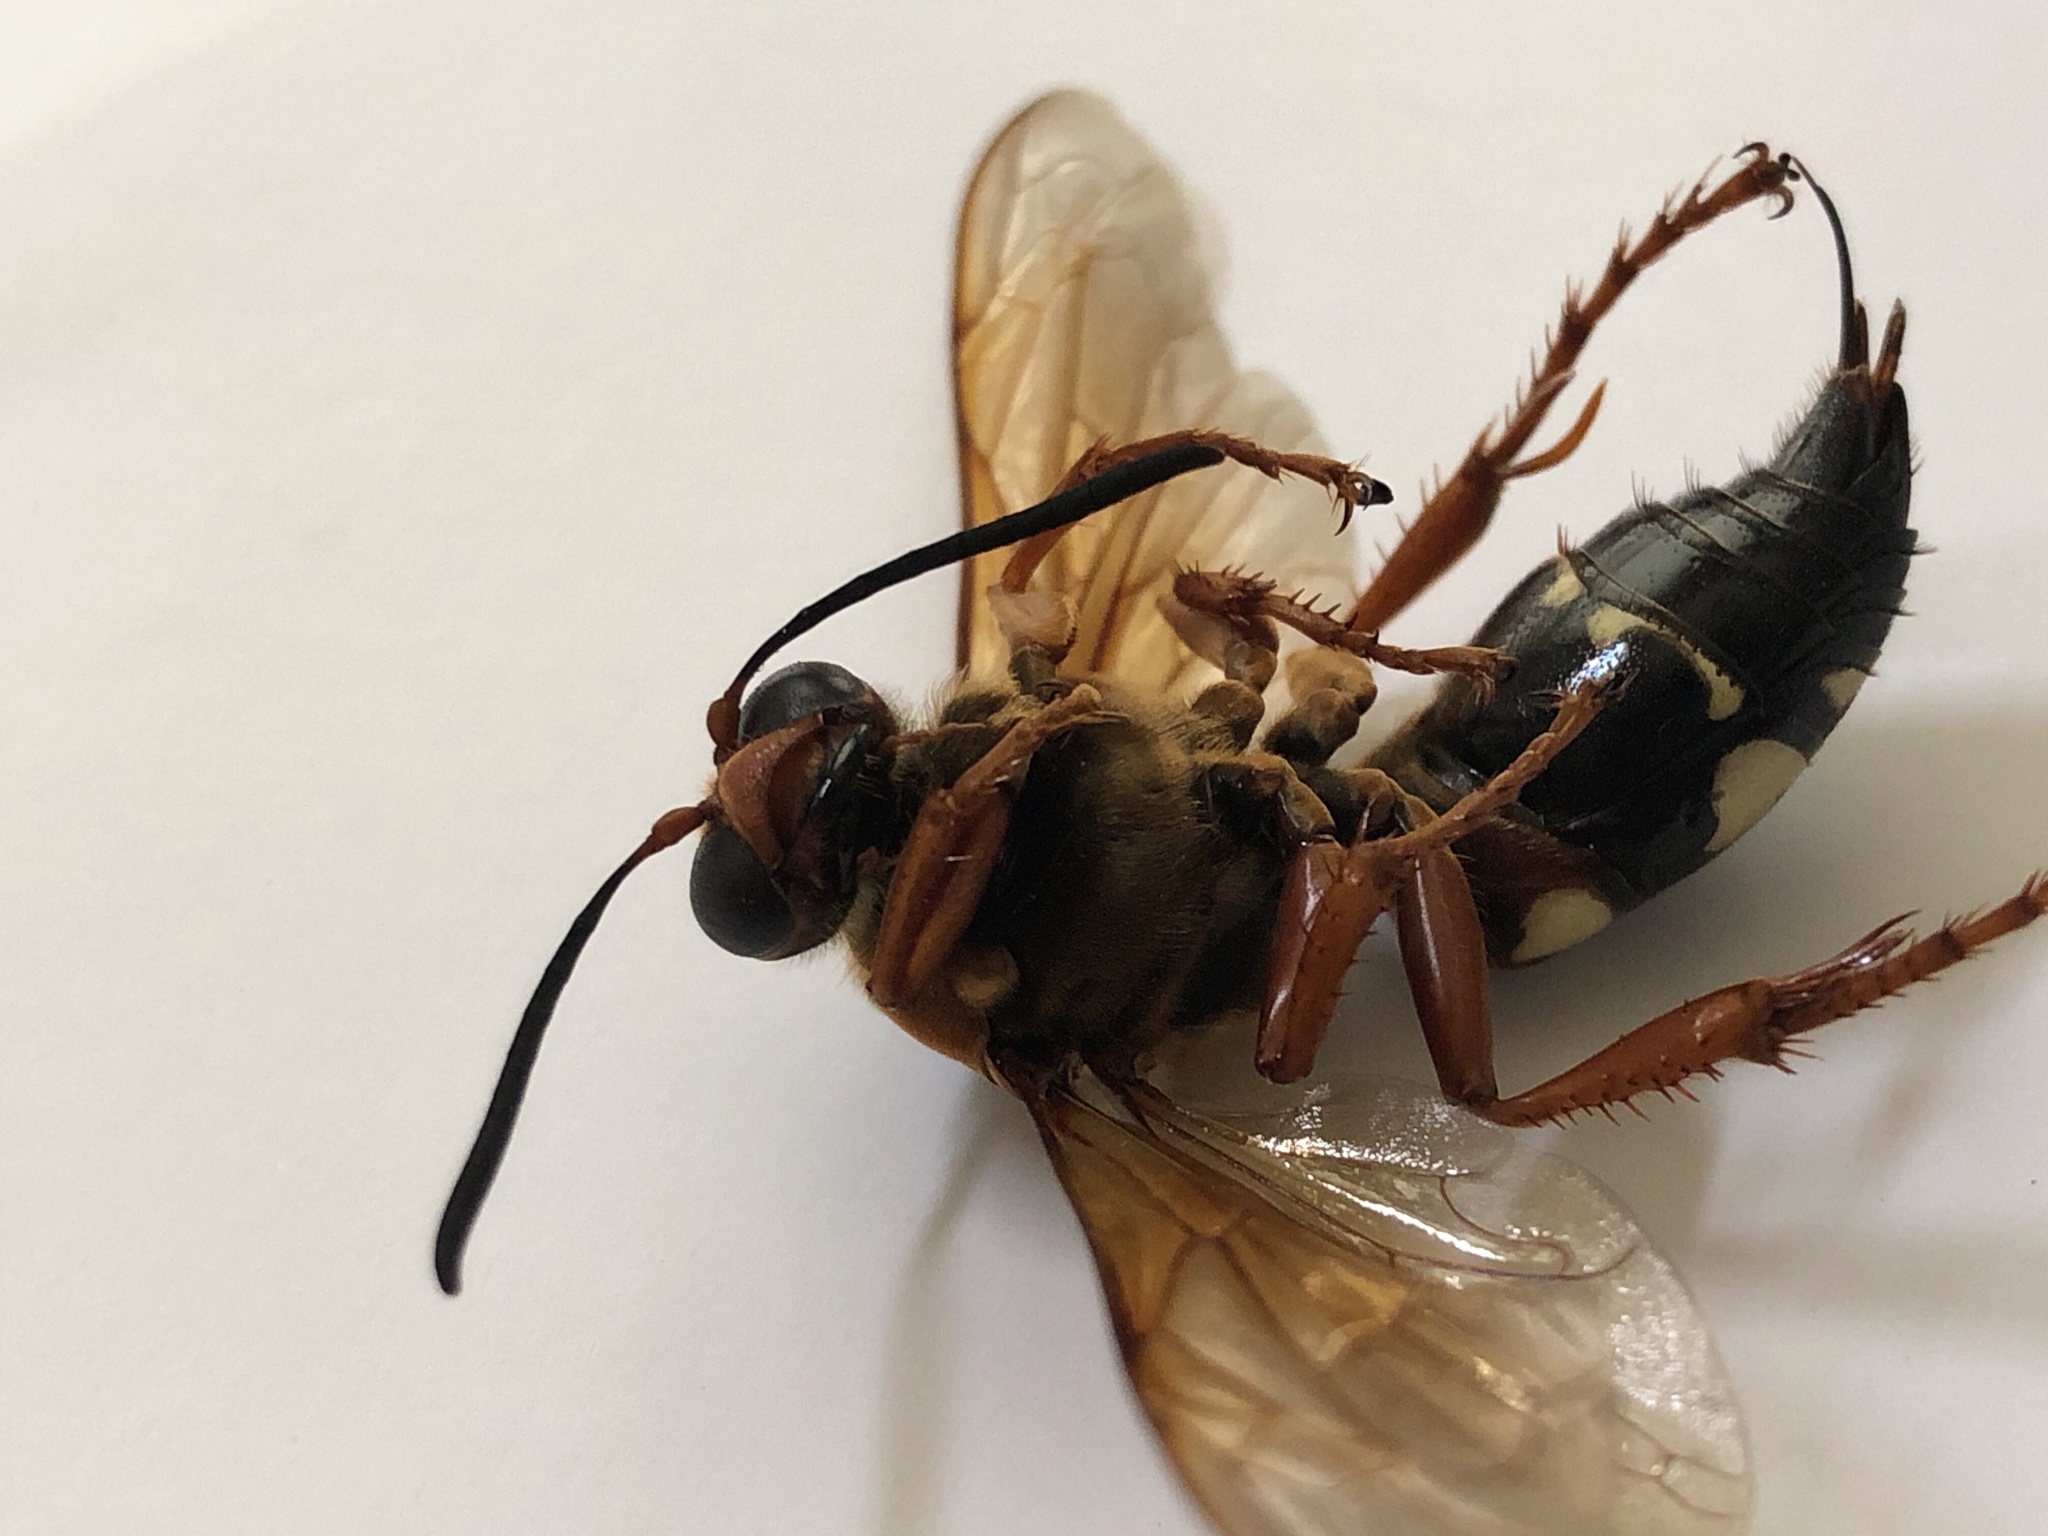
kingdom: Animalia
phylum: Arthropoda
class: Insecta
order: Hymenoptera
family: Crabronidae
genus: Sphecius
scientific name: Sphecius speciosus
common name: Cicada killer
